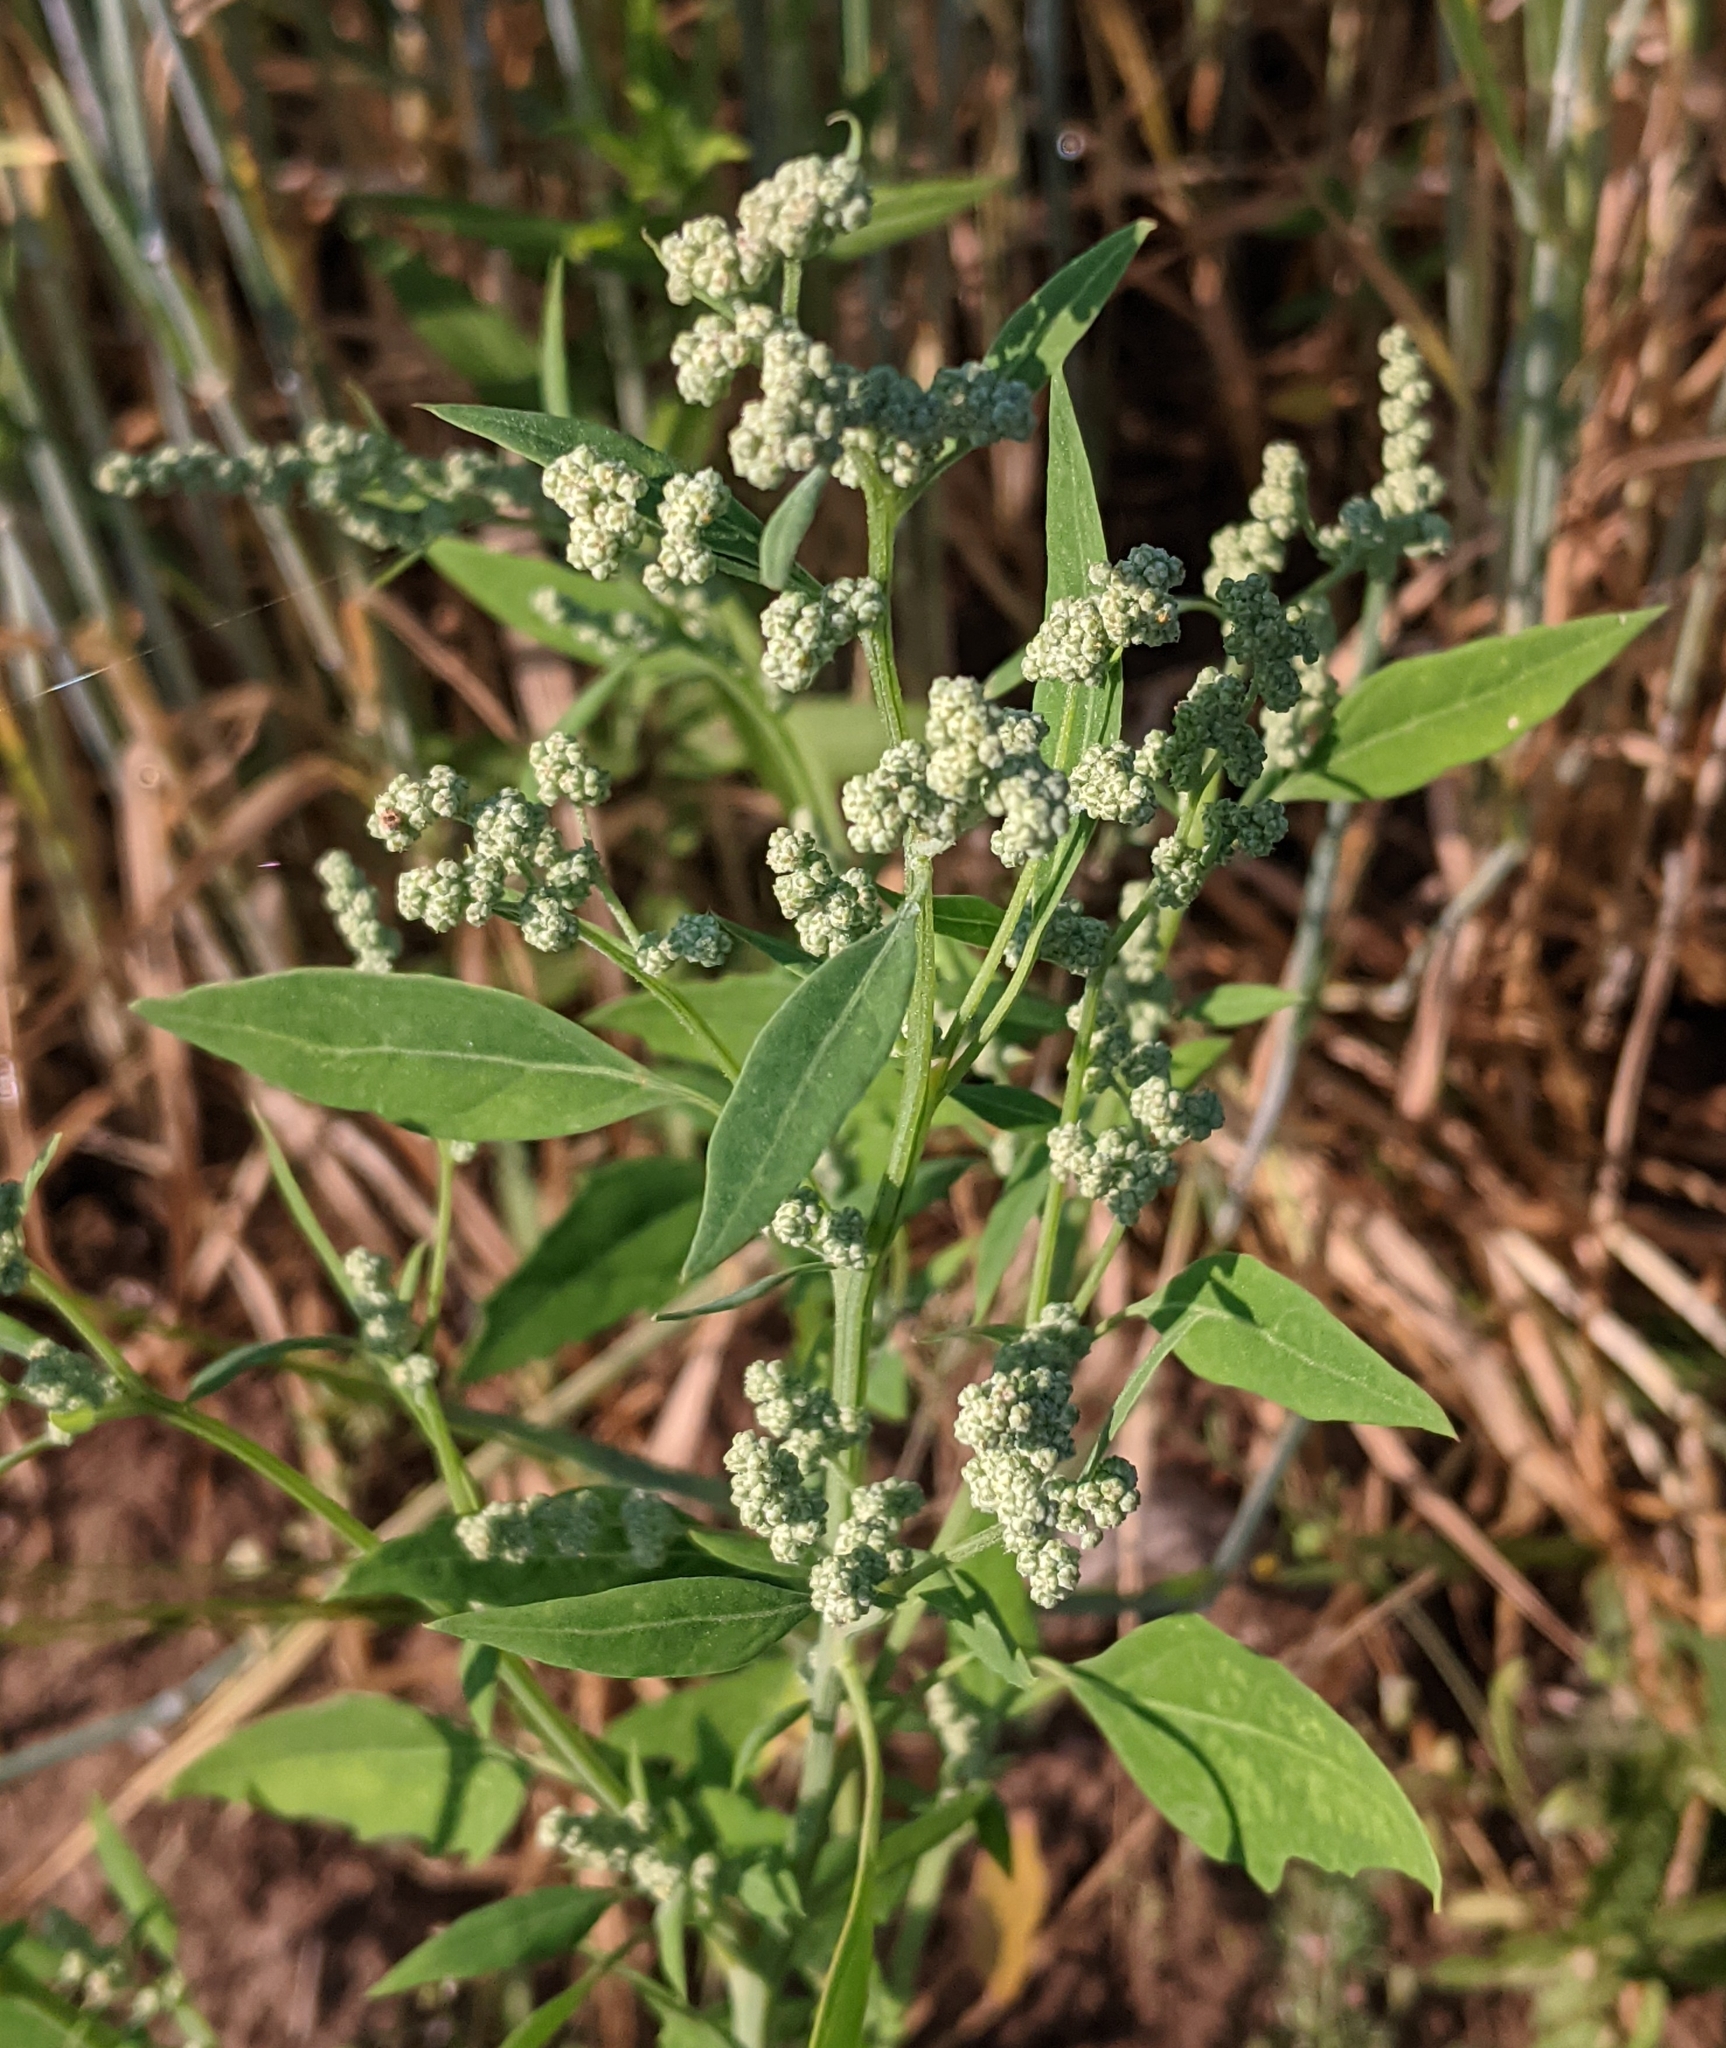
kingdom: Plantae
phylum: Tracheophyta
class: Magnoliopsida
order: Caryophyllales
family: Amaranthaceae
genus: Chenopodium
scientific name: Chenopodium album
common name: Fat-hen
